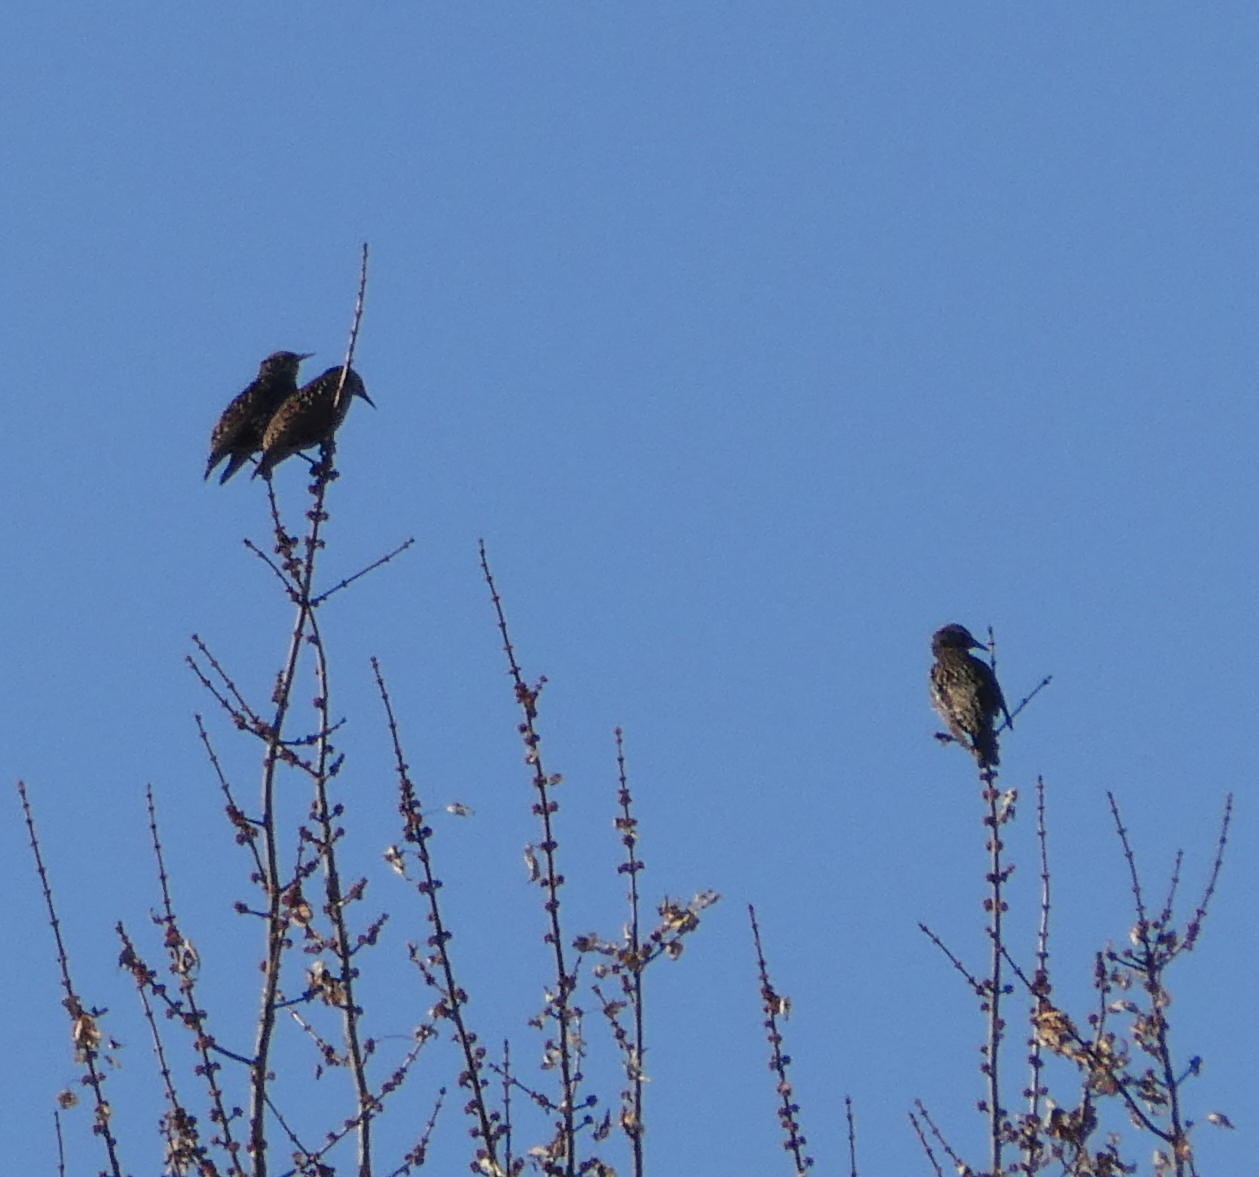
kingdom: Animalia
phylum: Chordata
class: Aves
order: Passeriformes
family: Sturnidae
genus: Sturnus
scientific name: Sturnus vulgaris
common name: Common starling
